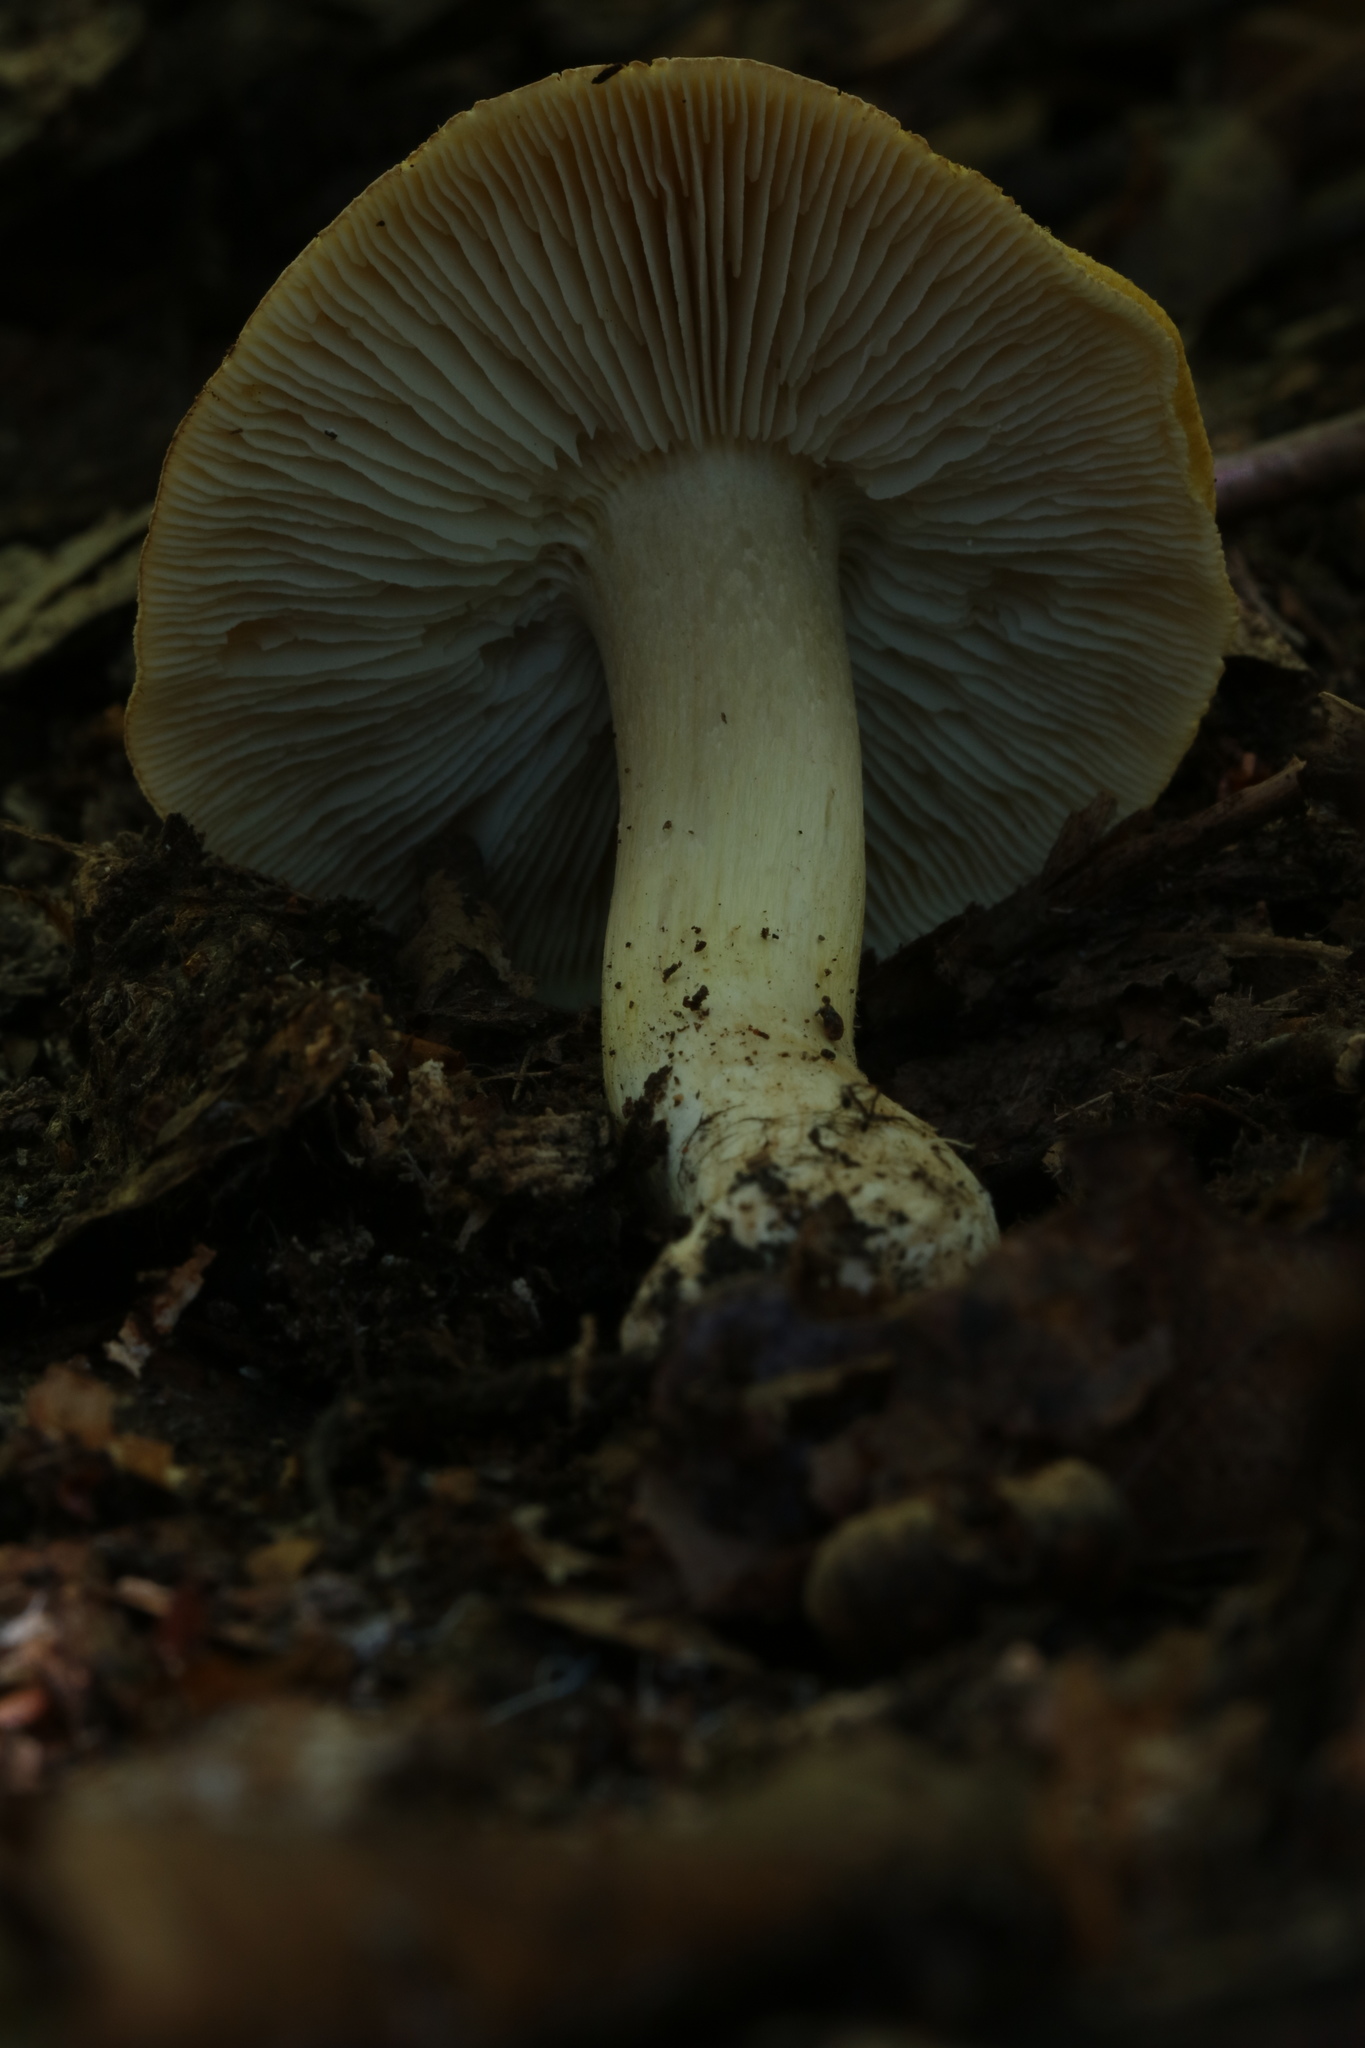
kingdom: Fungi
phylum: Basidiomycota
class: Agaricomycetes
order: Agaricales
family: Tricholomataceae
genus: Tricholoma
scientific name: Tricholoma intermedium
